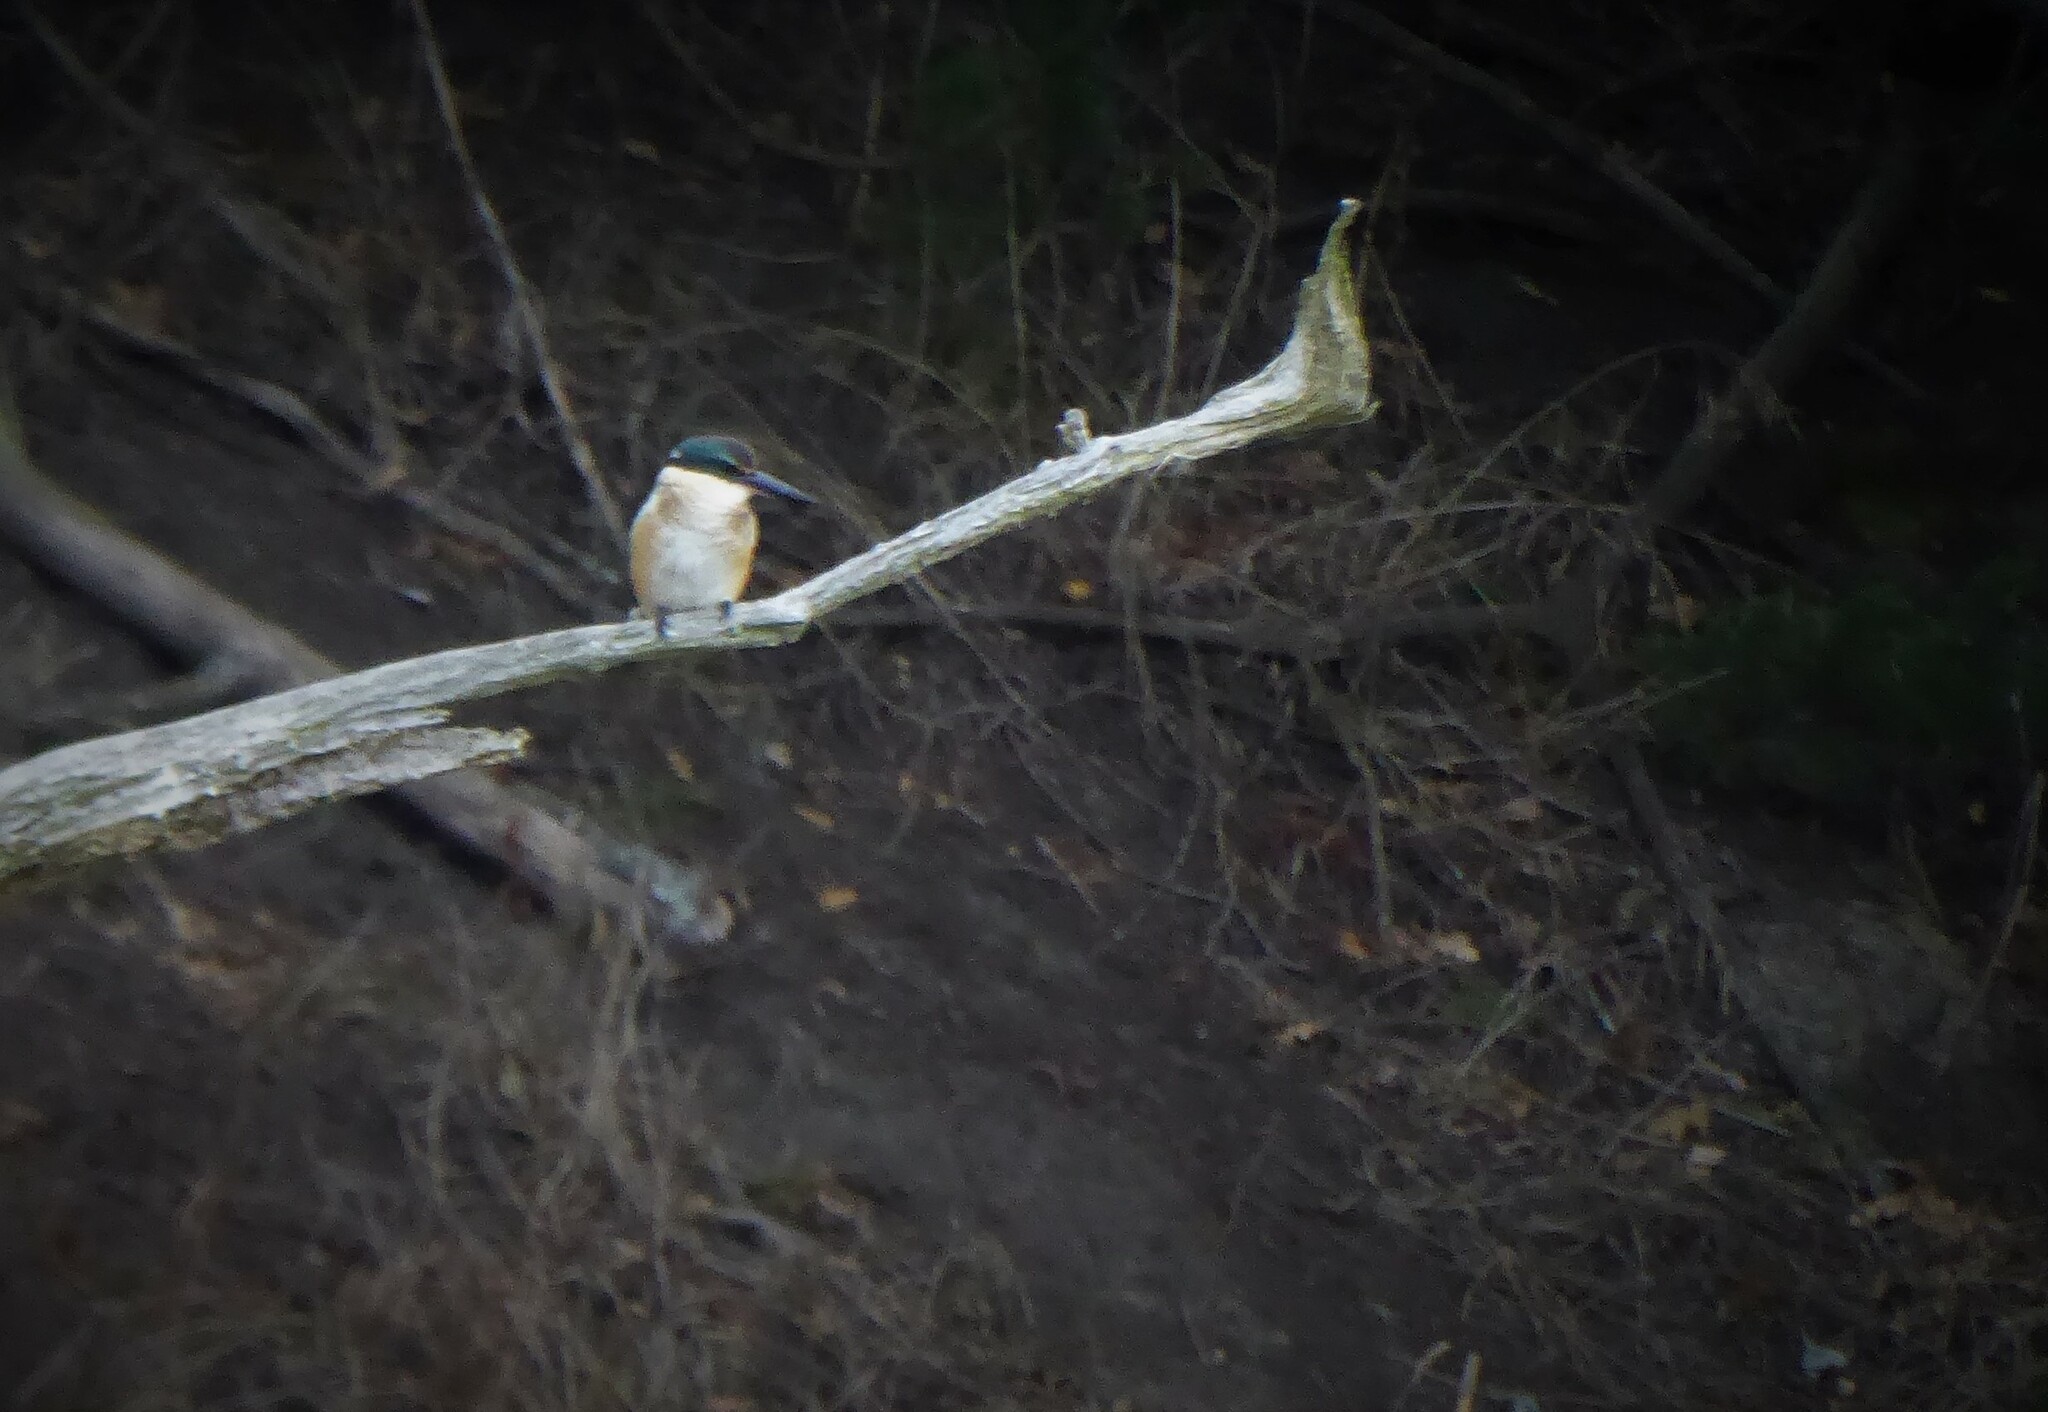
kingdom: Animalia
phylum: Chordata
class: Aves
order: Coraciiformes
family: Alcedinidae
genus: Todiramphus
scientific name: Todiramphus sanctus
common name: Sacred kingfisher
